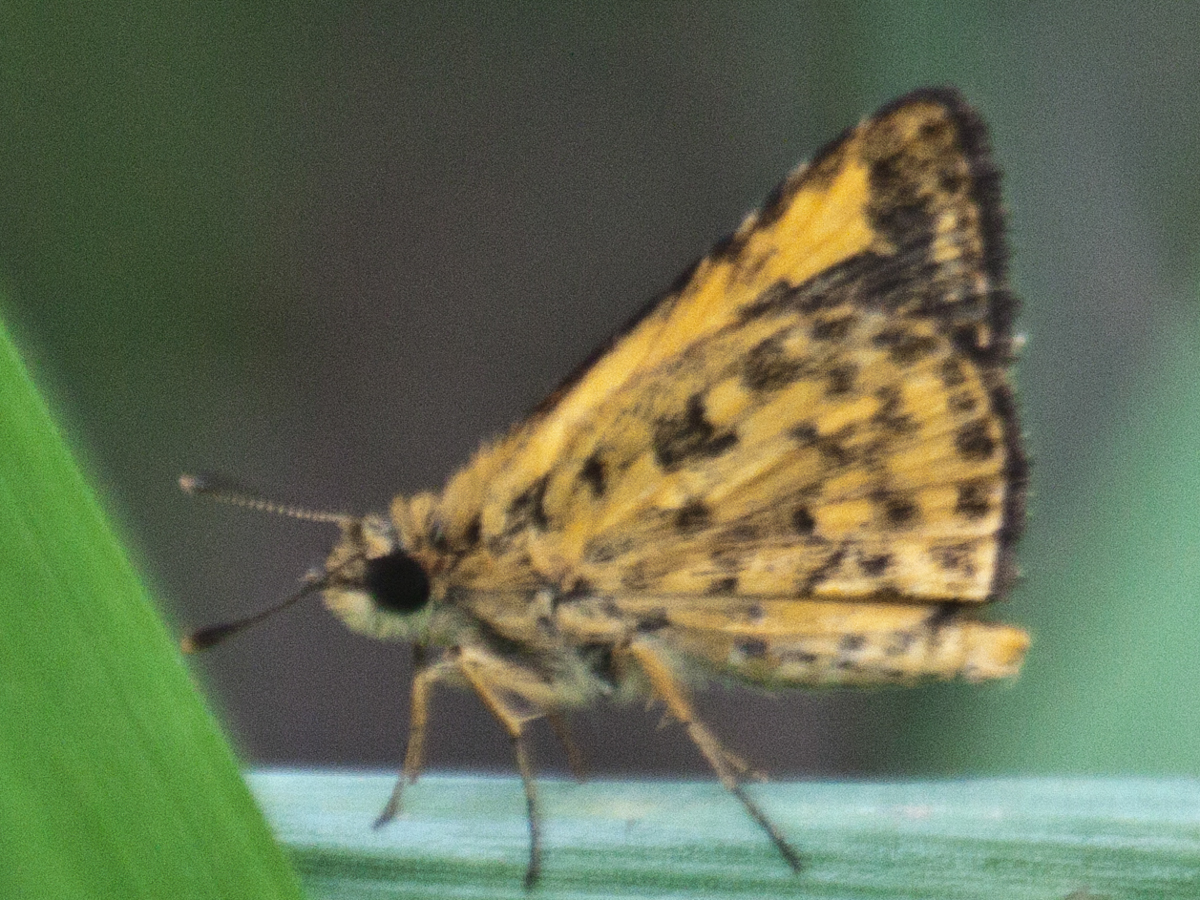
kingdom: Animalia
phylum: Arthropoda
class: Insecta
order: Lepidoptera
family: Hesperiidae
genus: Ampittia
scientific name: Ampittia dioscorides
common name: Common bush hopper
